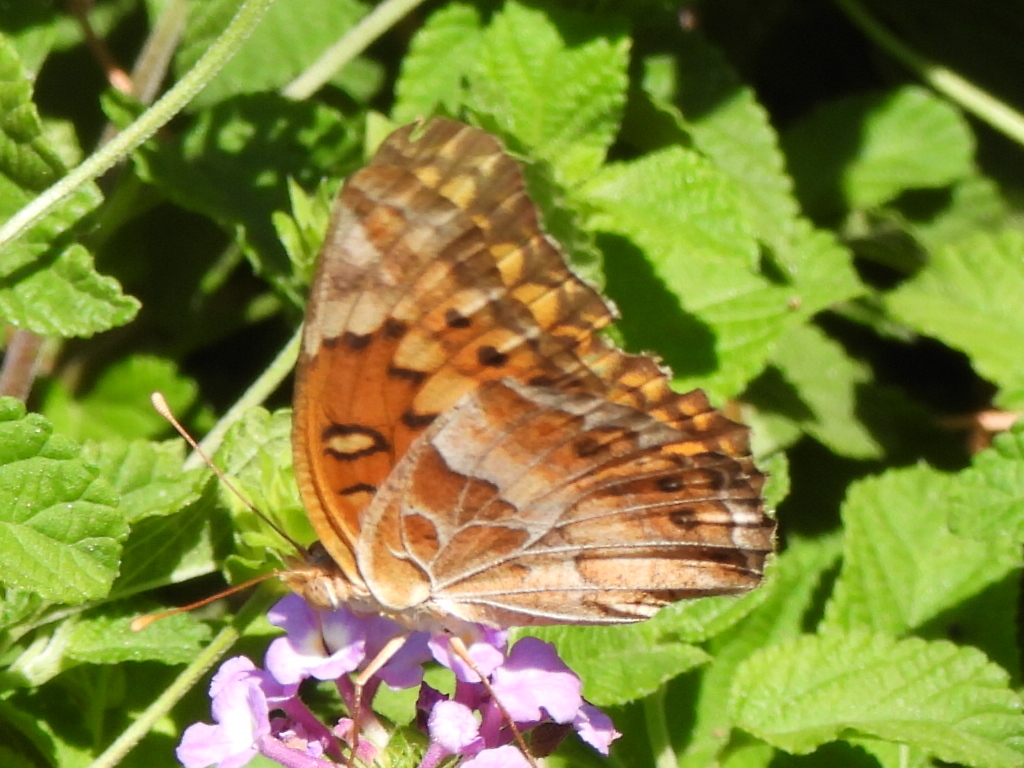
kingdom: Animalia
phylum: Arthropoda
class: Insecta
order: Lepidoptera
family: Nymphalidae
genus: Euptoieta
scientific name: Euptoieta claudia
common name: Variegated fritillary
